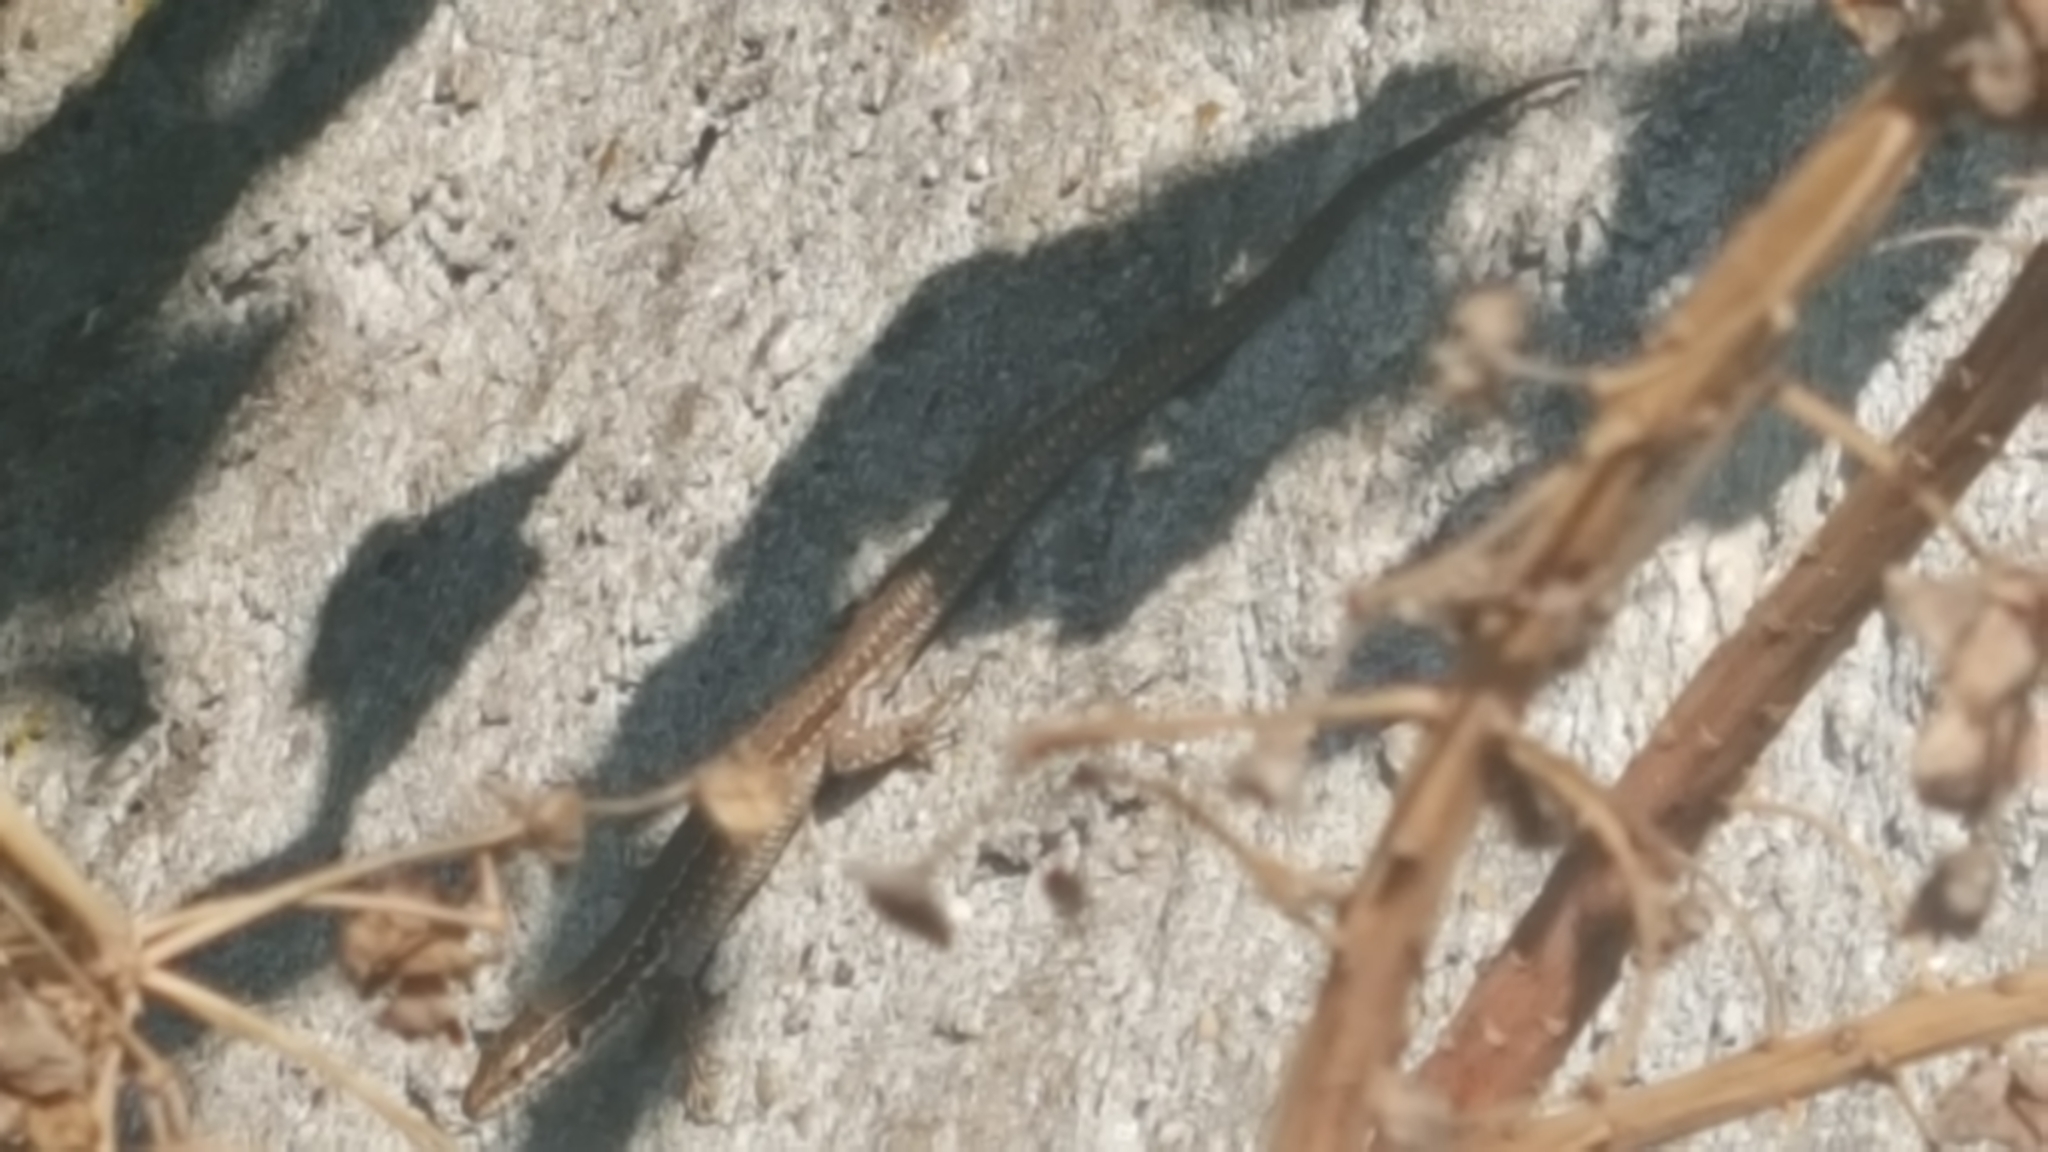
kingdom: Animalia
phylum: Chordata
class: Squamata
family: Lacertidae
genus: Podarcis
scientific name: Podarcis muralis
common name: Common wall lizard
